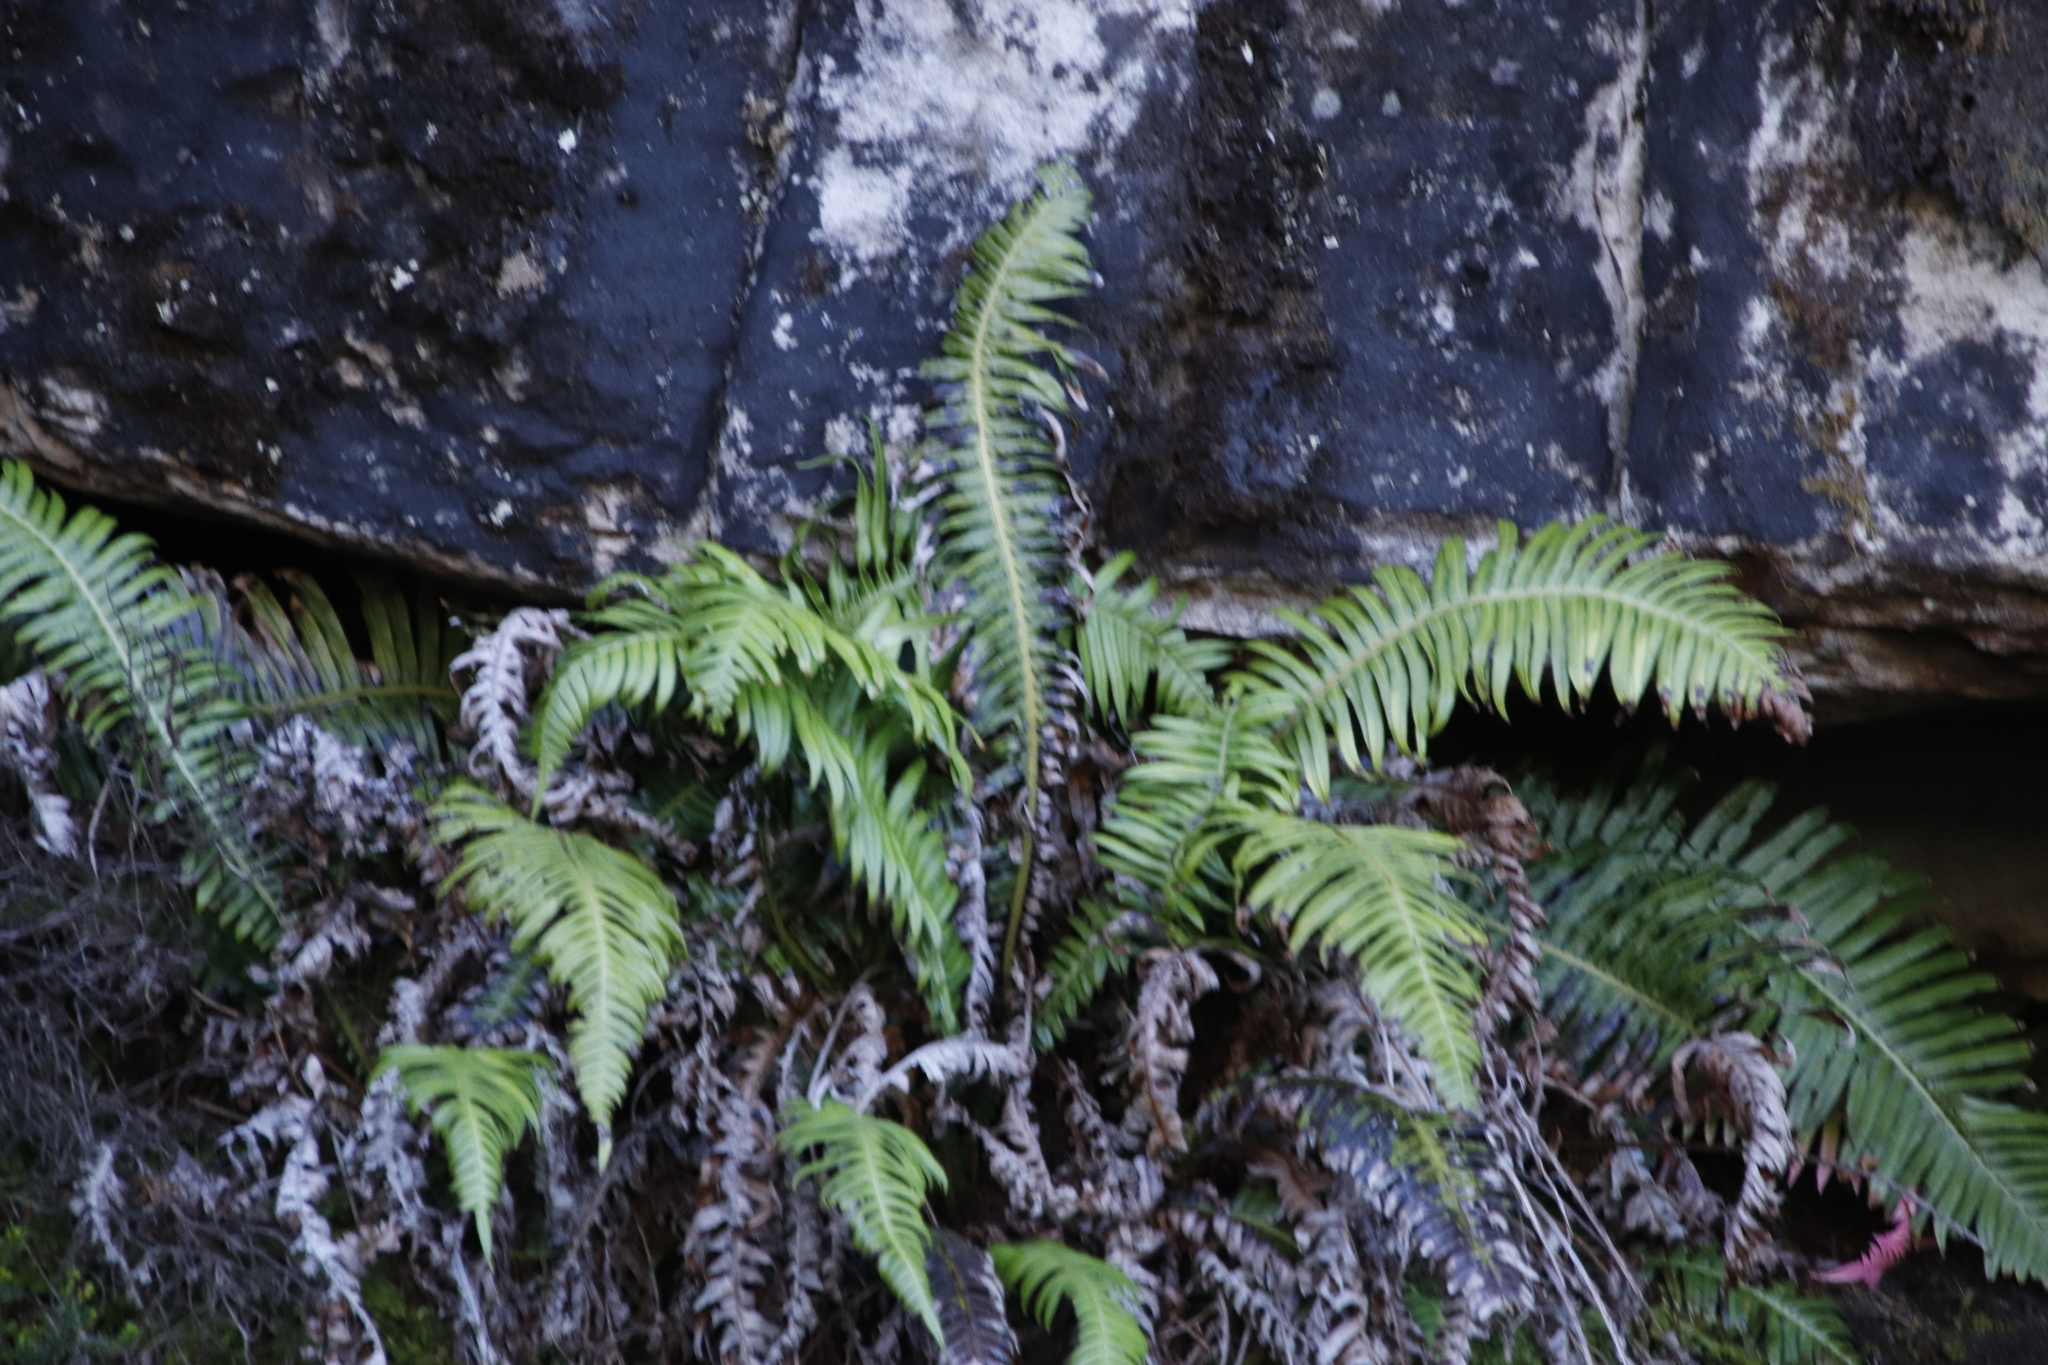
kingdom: Plantae
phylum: Tracheophyta
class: Polypodiopsida
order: Polypodiales
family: Blechnaceae
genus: Blechnum
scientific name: Blechnum punctulatum
